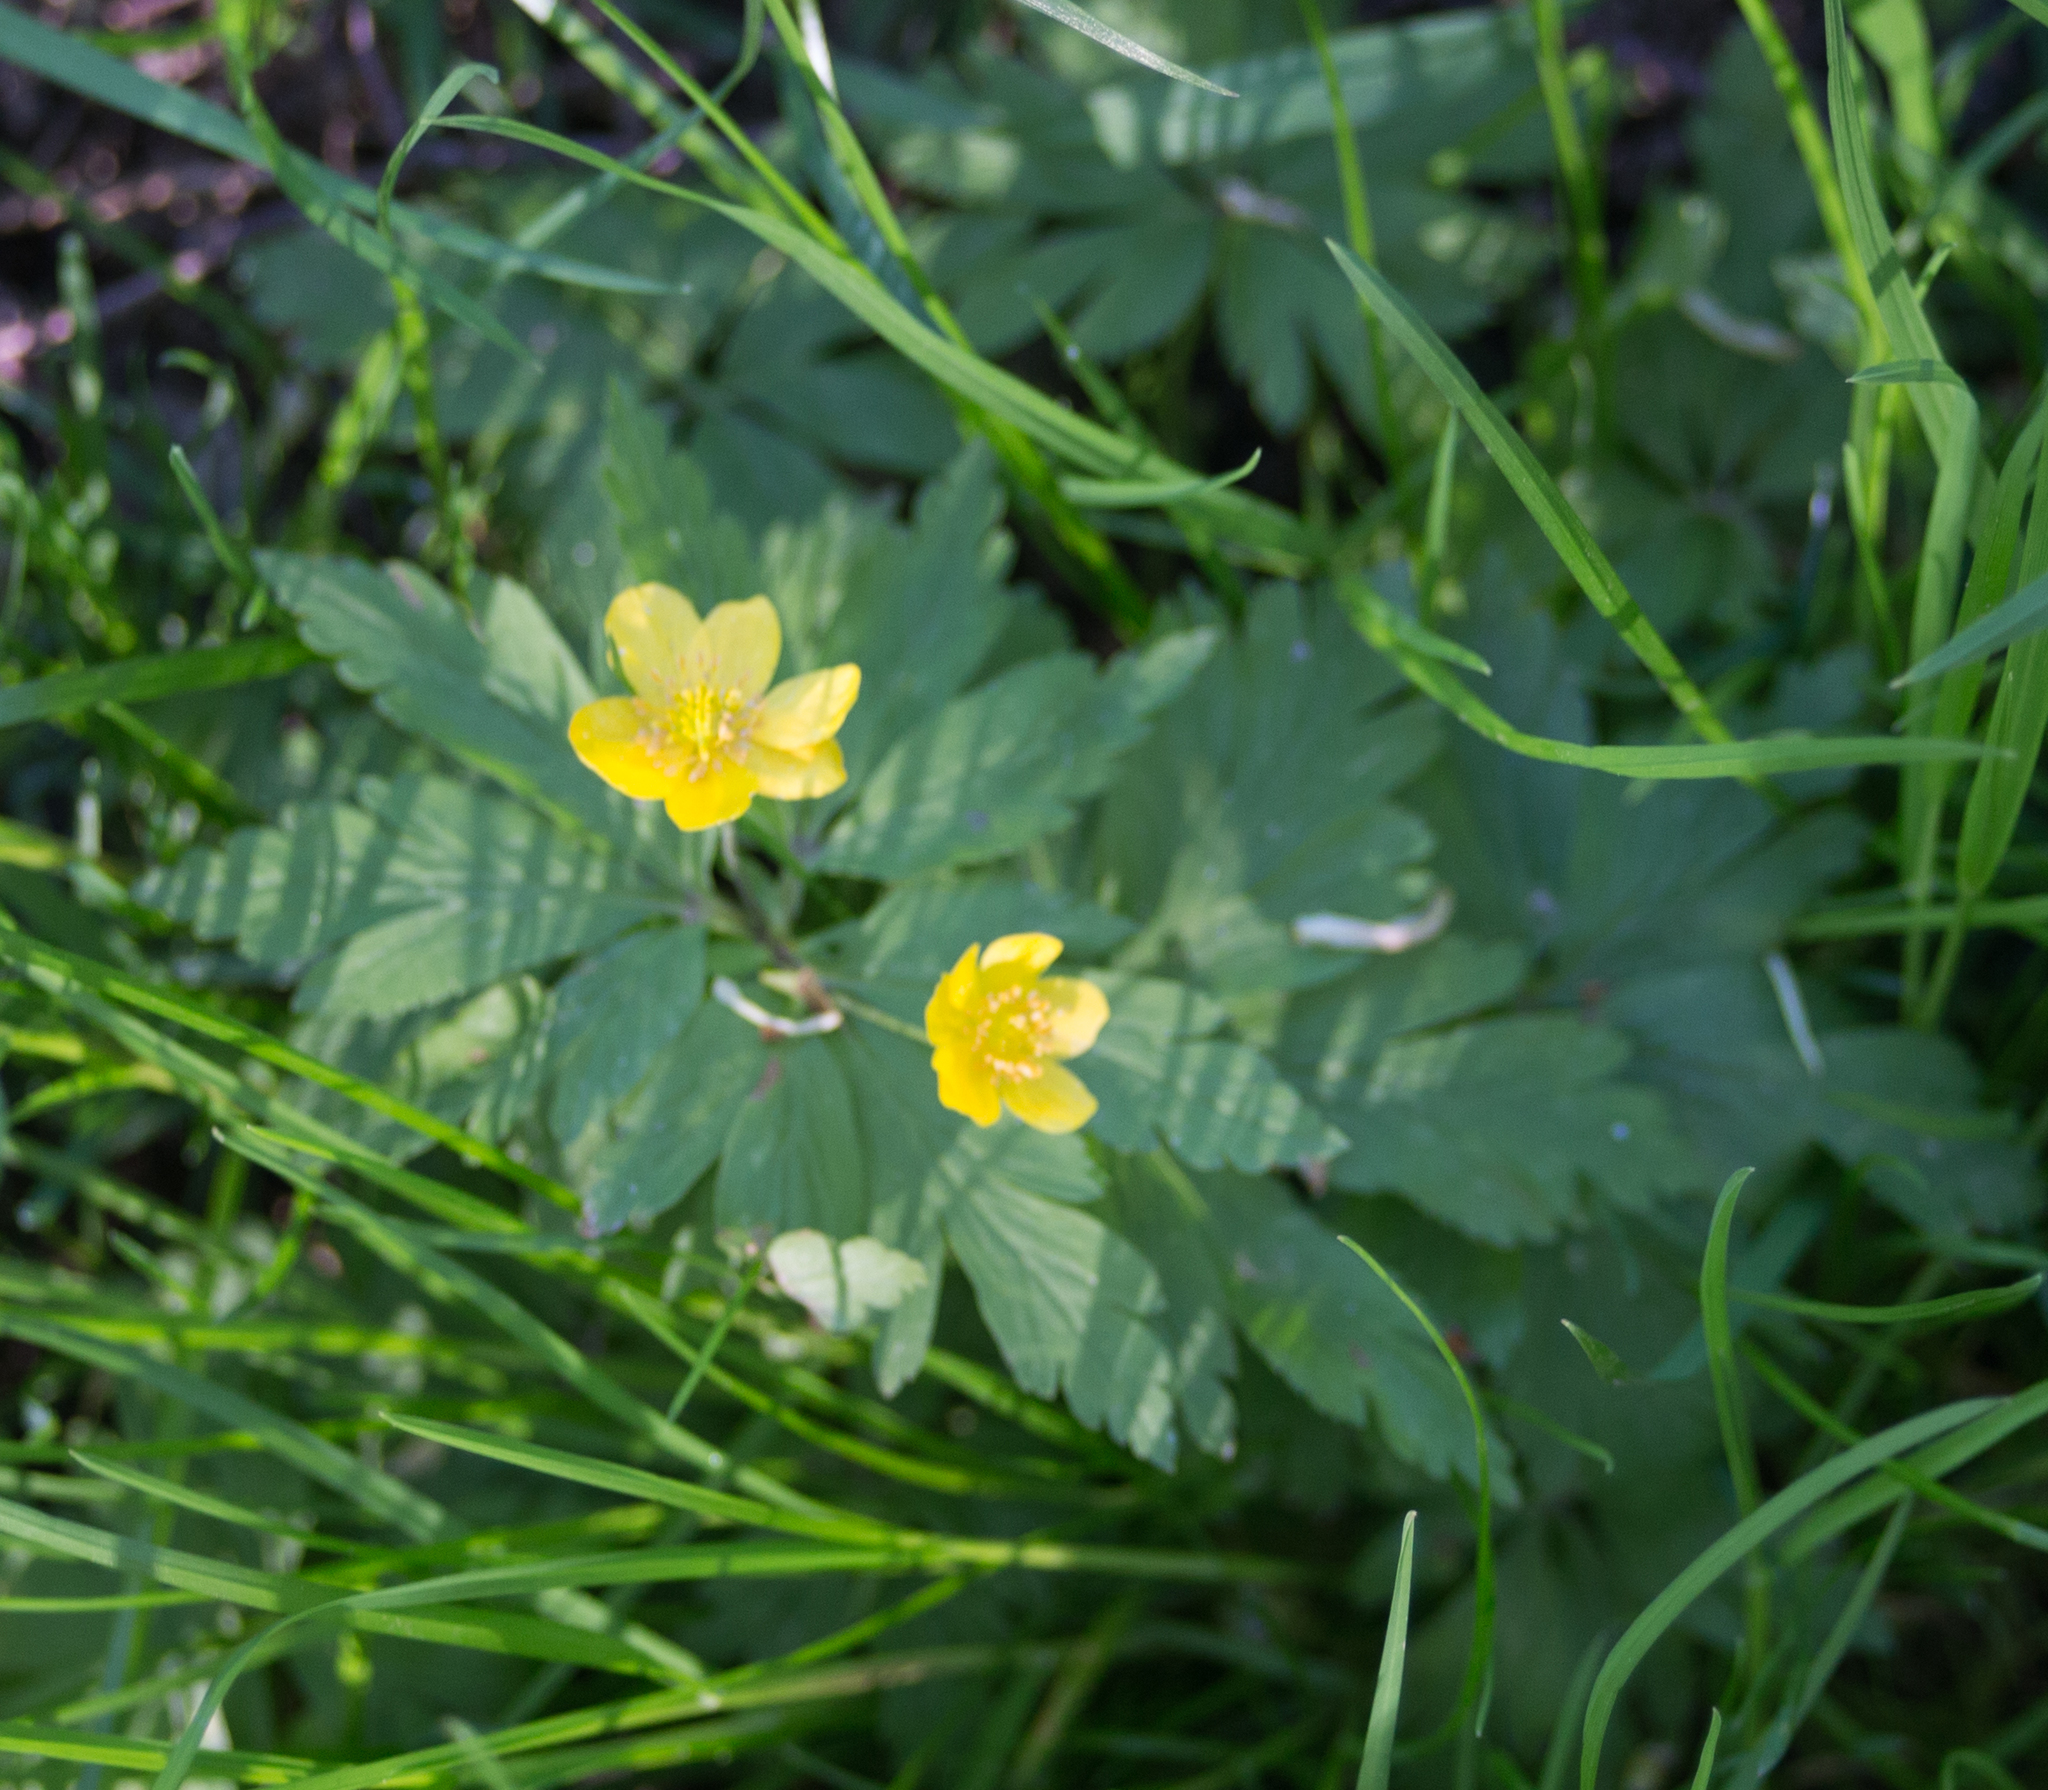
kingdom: Plantae
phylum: Tracheophyta
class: Magnoliopsida
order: Ranunculales
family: Ranunculaceae
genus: Anemone
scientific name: Anemone ranunculoides
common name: Yellow anemone
